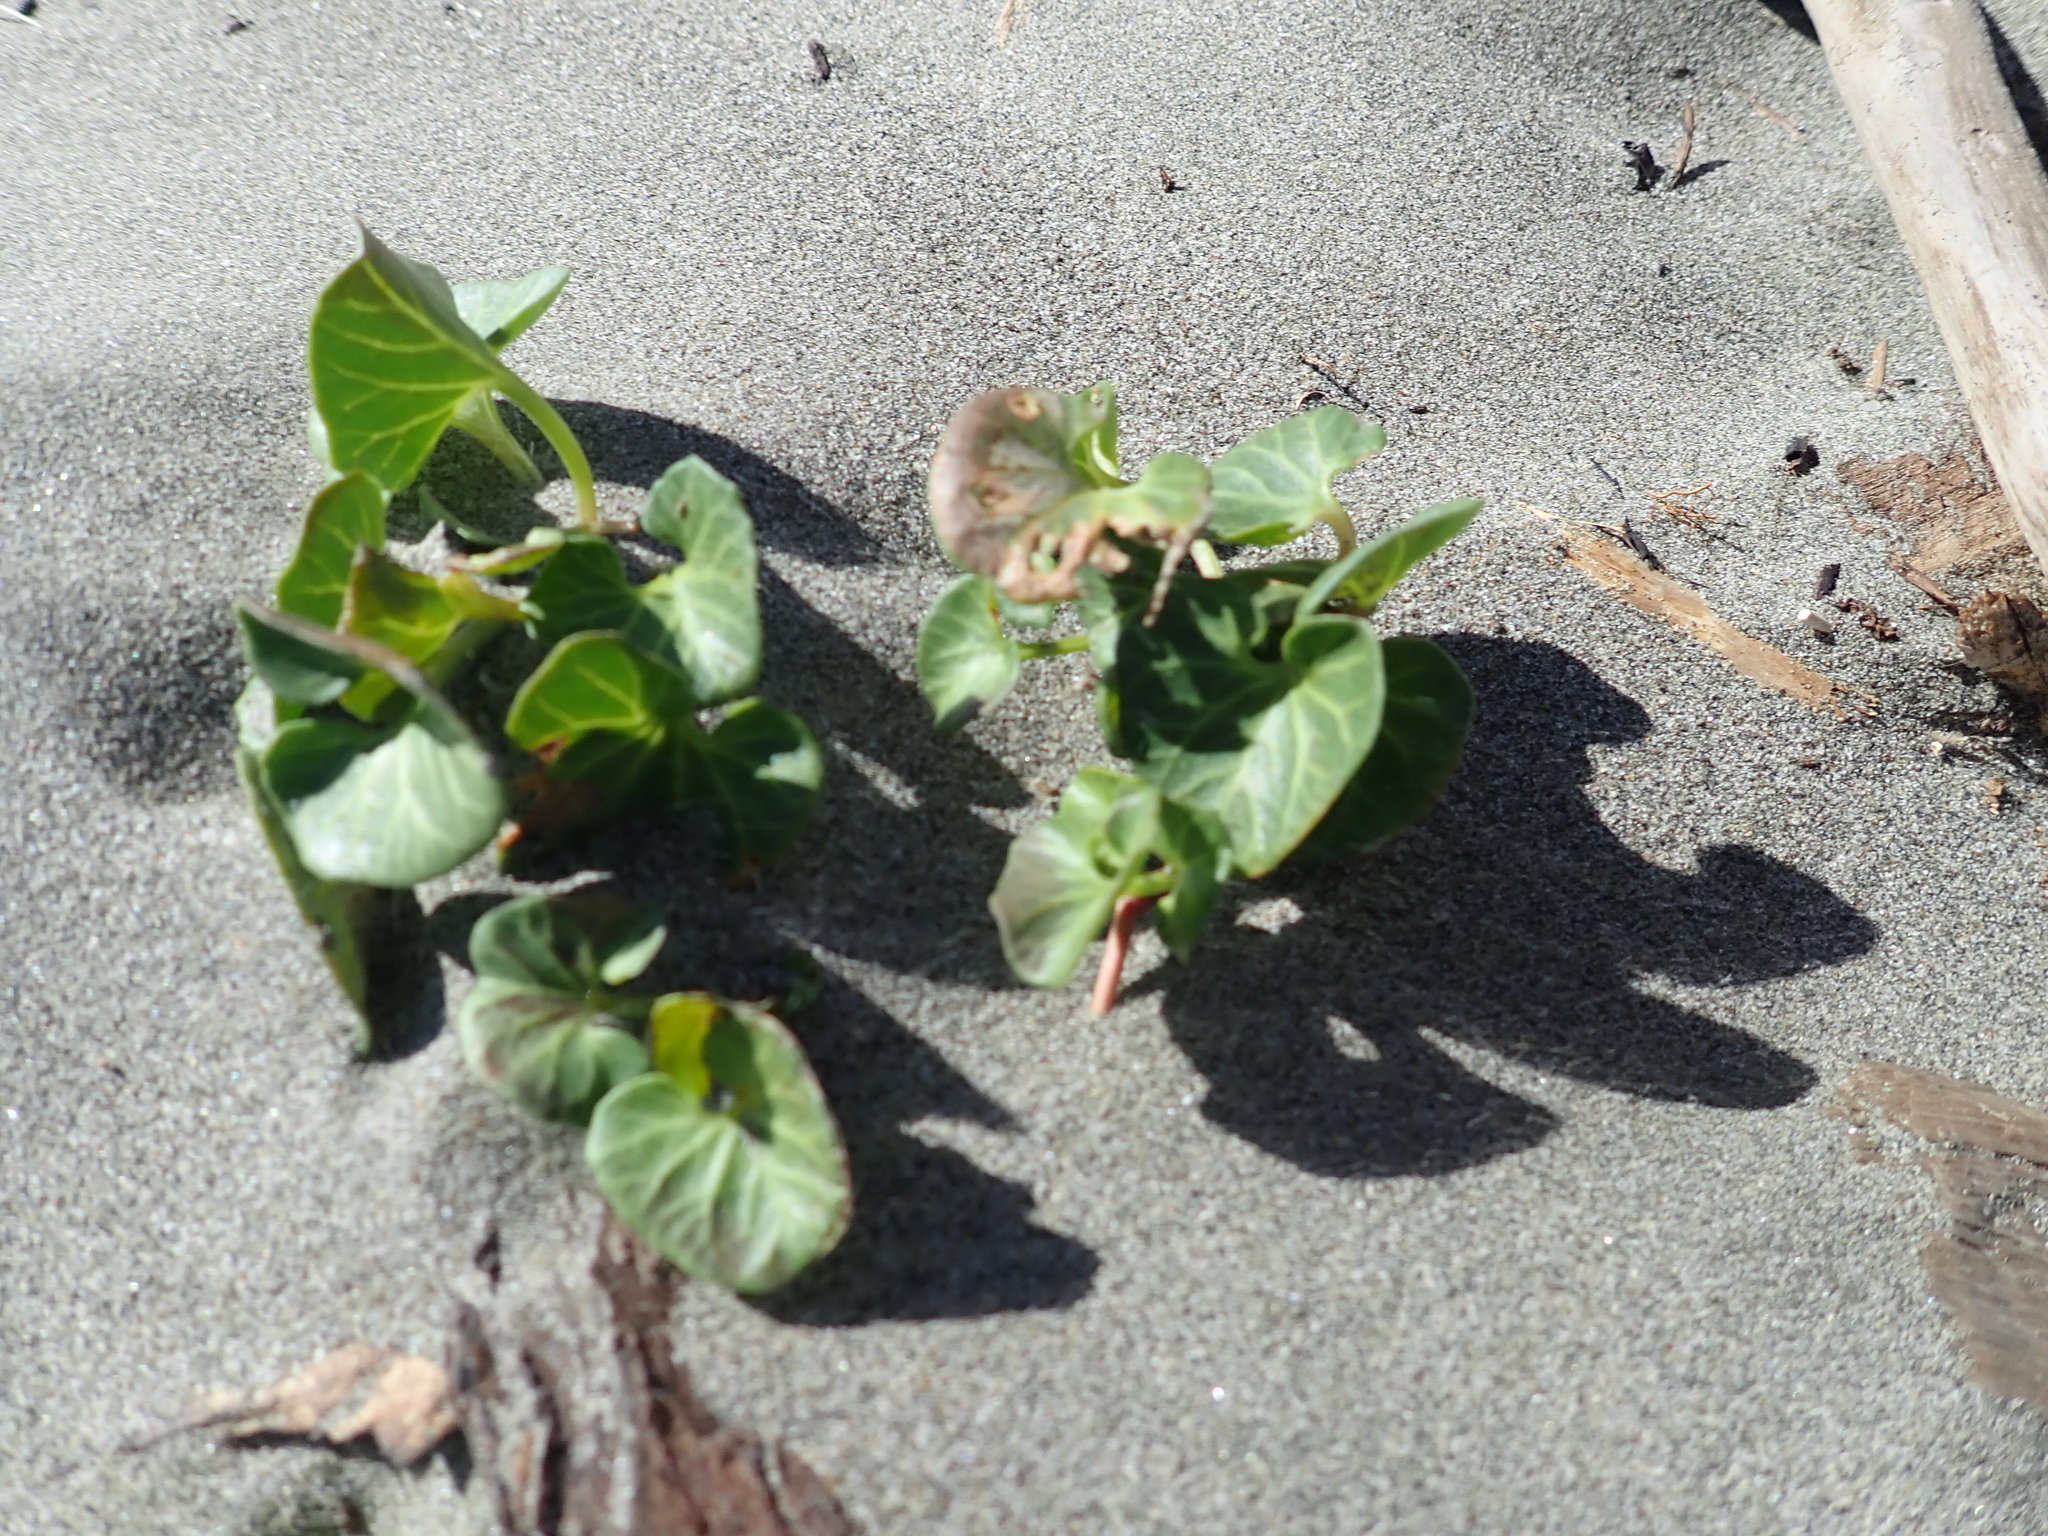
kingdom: Plantae
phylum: Tracheophyta
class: Magnoliopsida
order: Solanales
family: Convolvulaceae
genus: Calystegia
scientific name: Calystegia soldanella
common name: Sea bindweed
